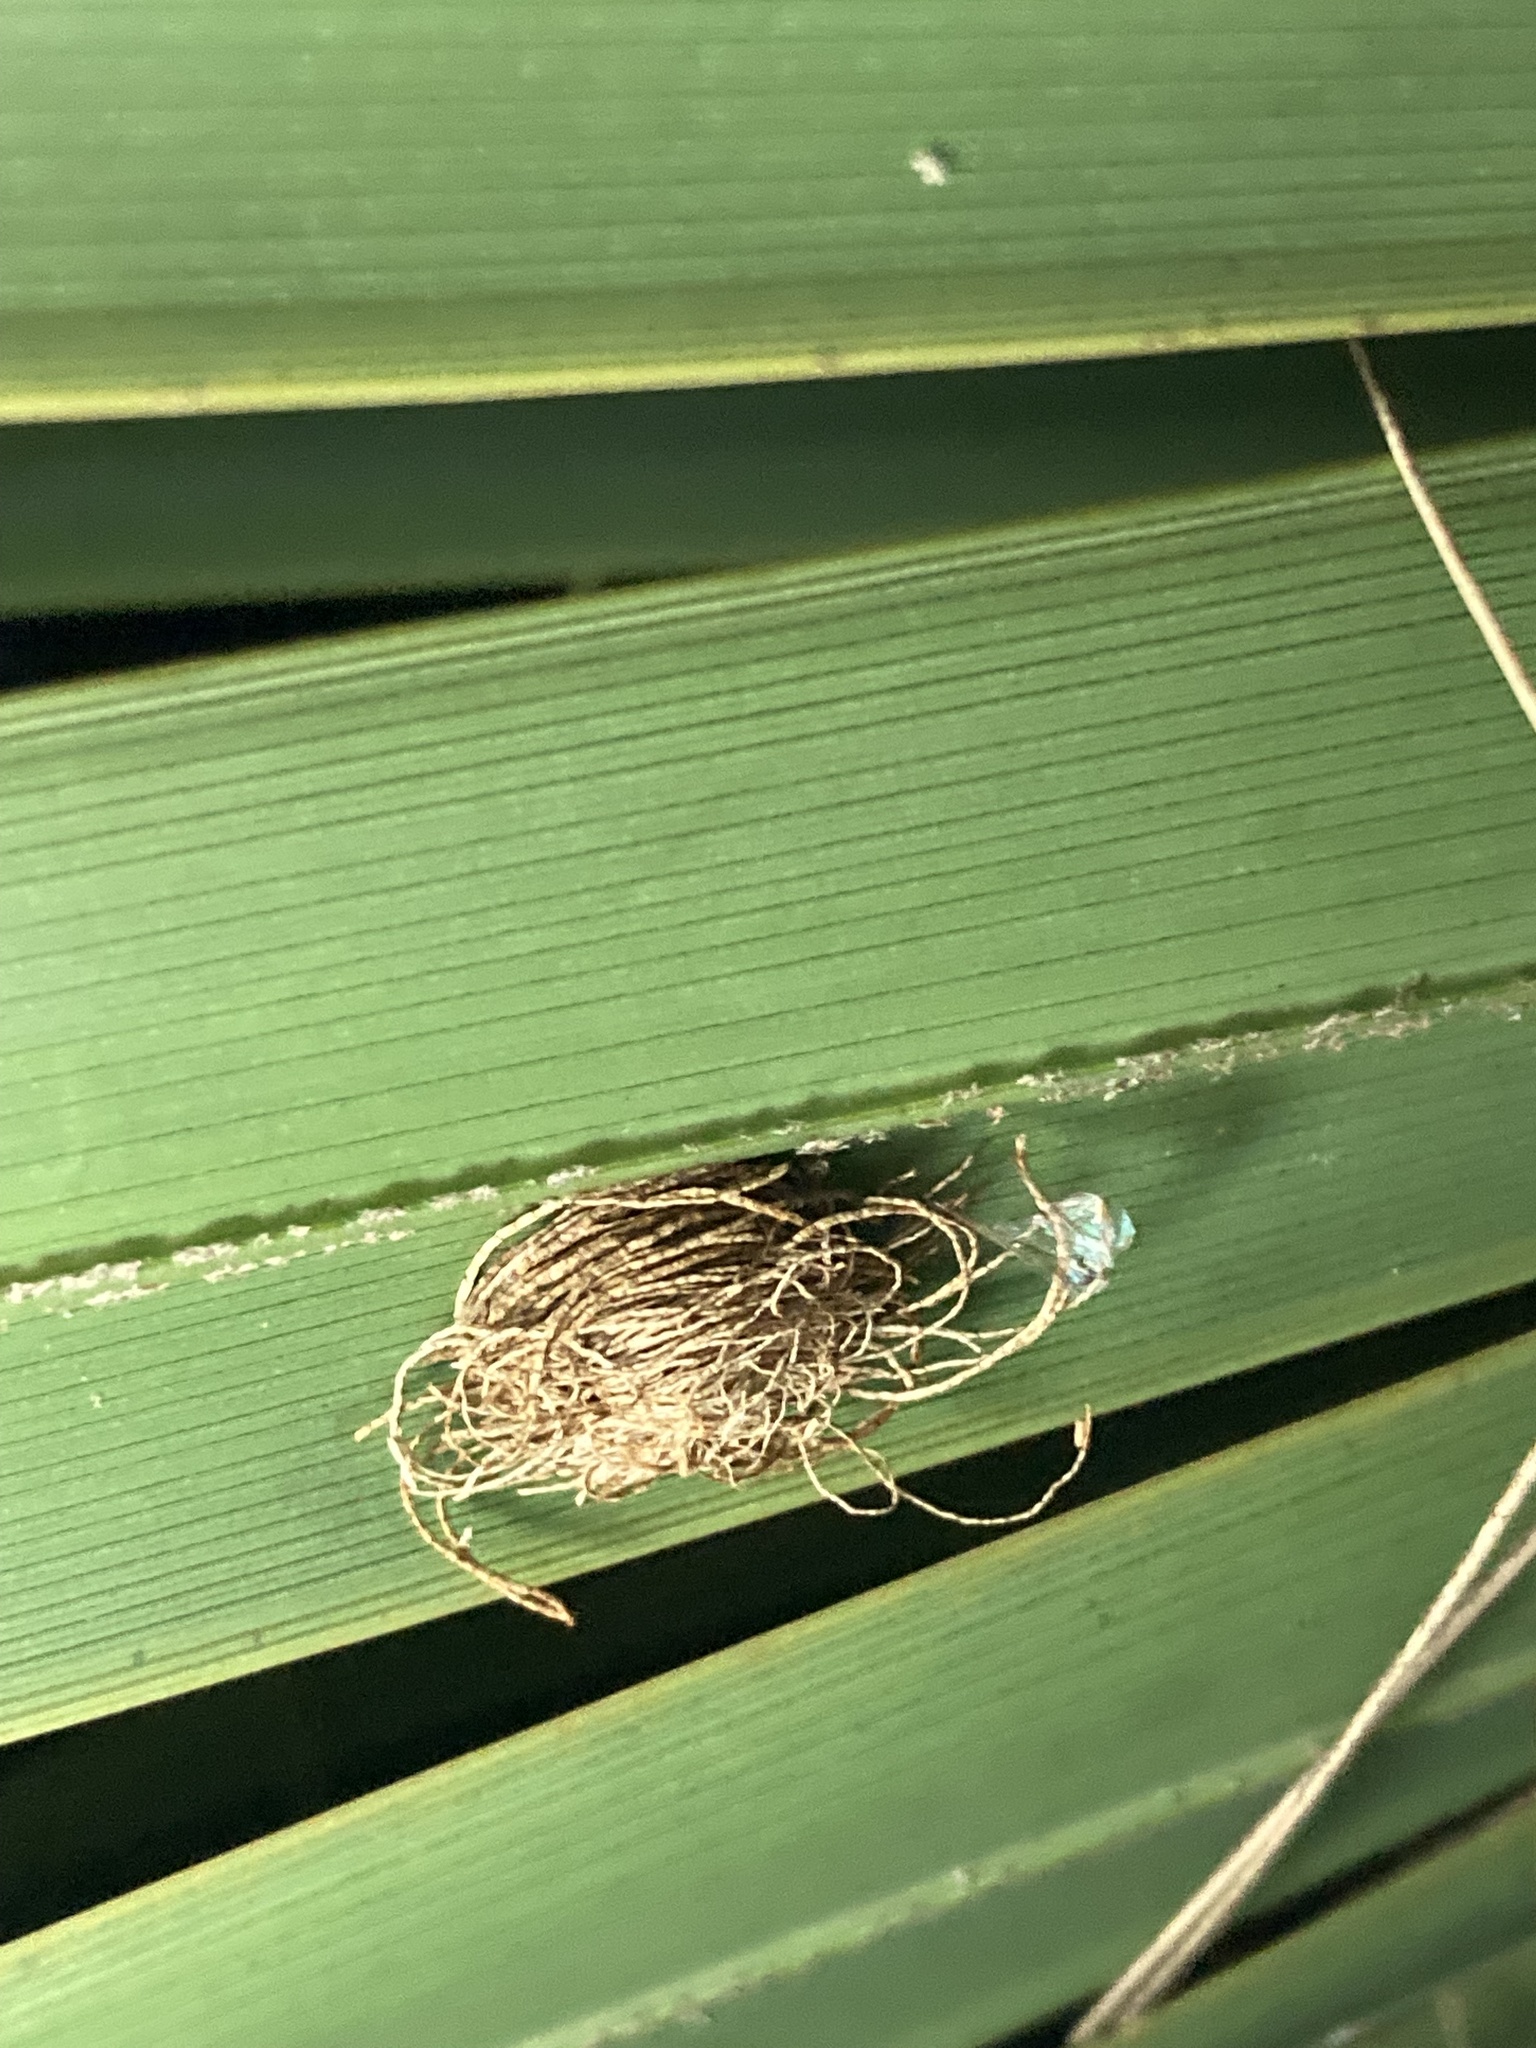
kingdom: Animalia
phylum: Arthropoda
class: Insecta
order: Coleoptera
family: Chrysomelidae
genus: Hemisphaerota
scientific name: Hemisphaerota cyanea
